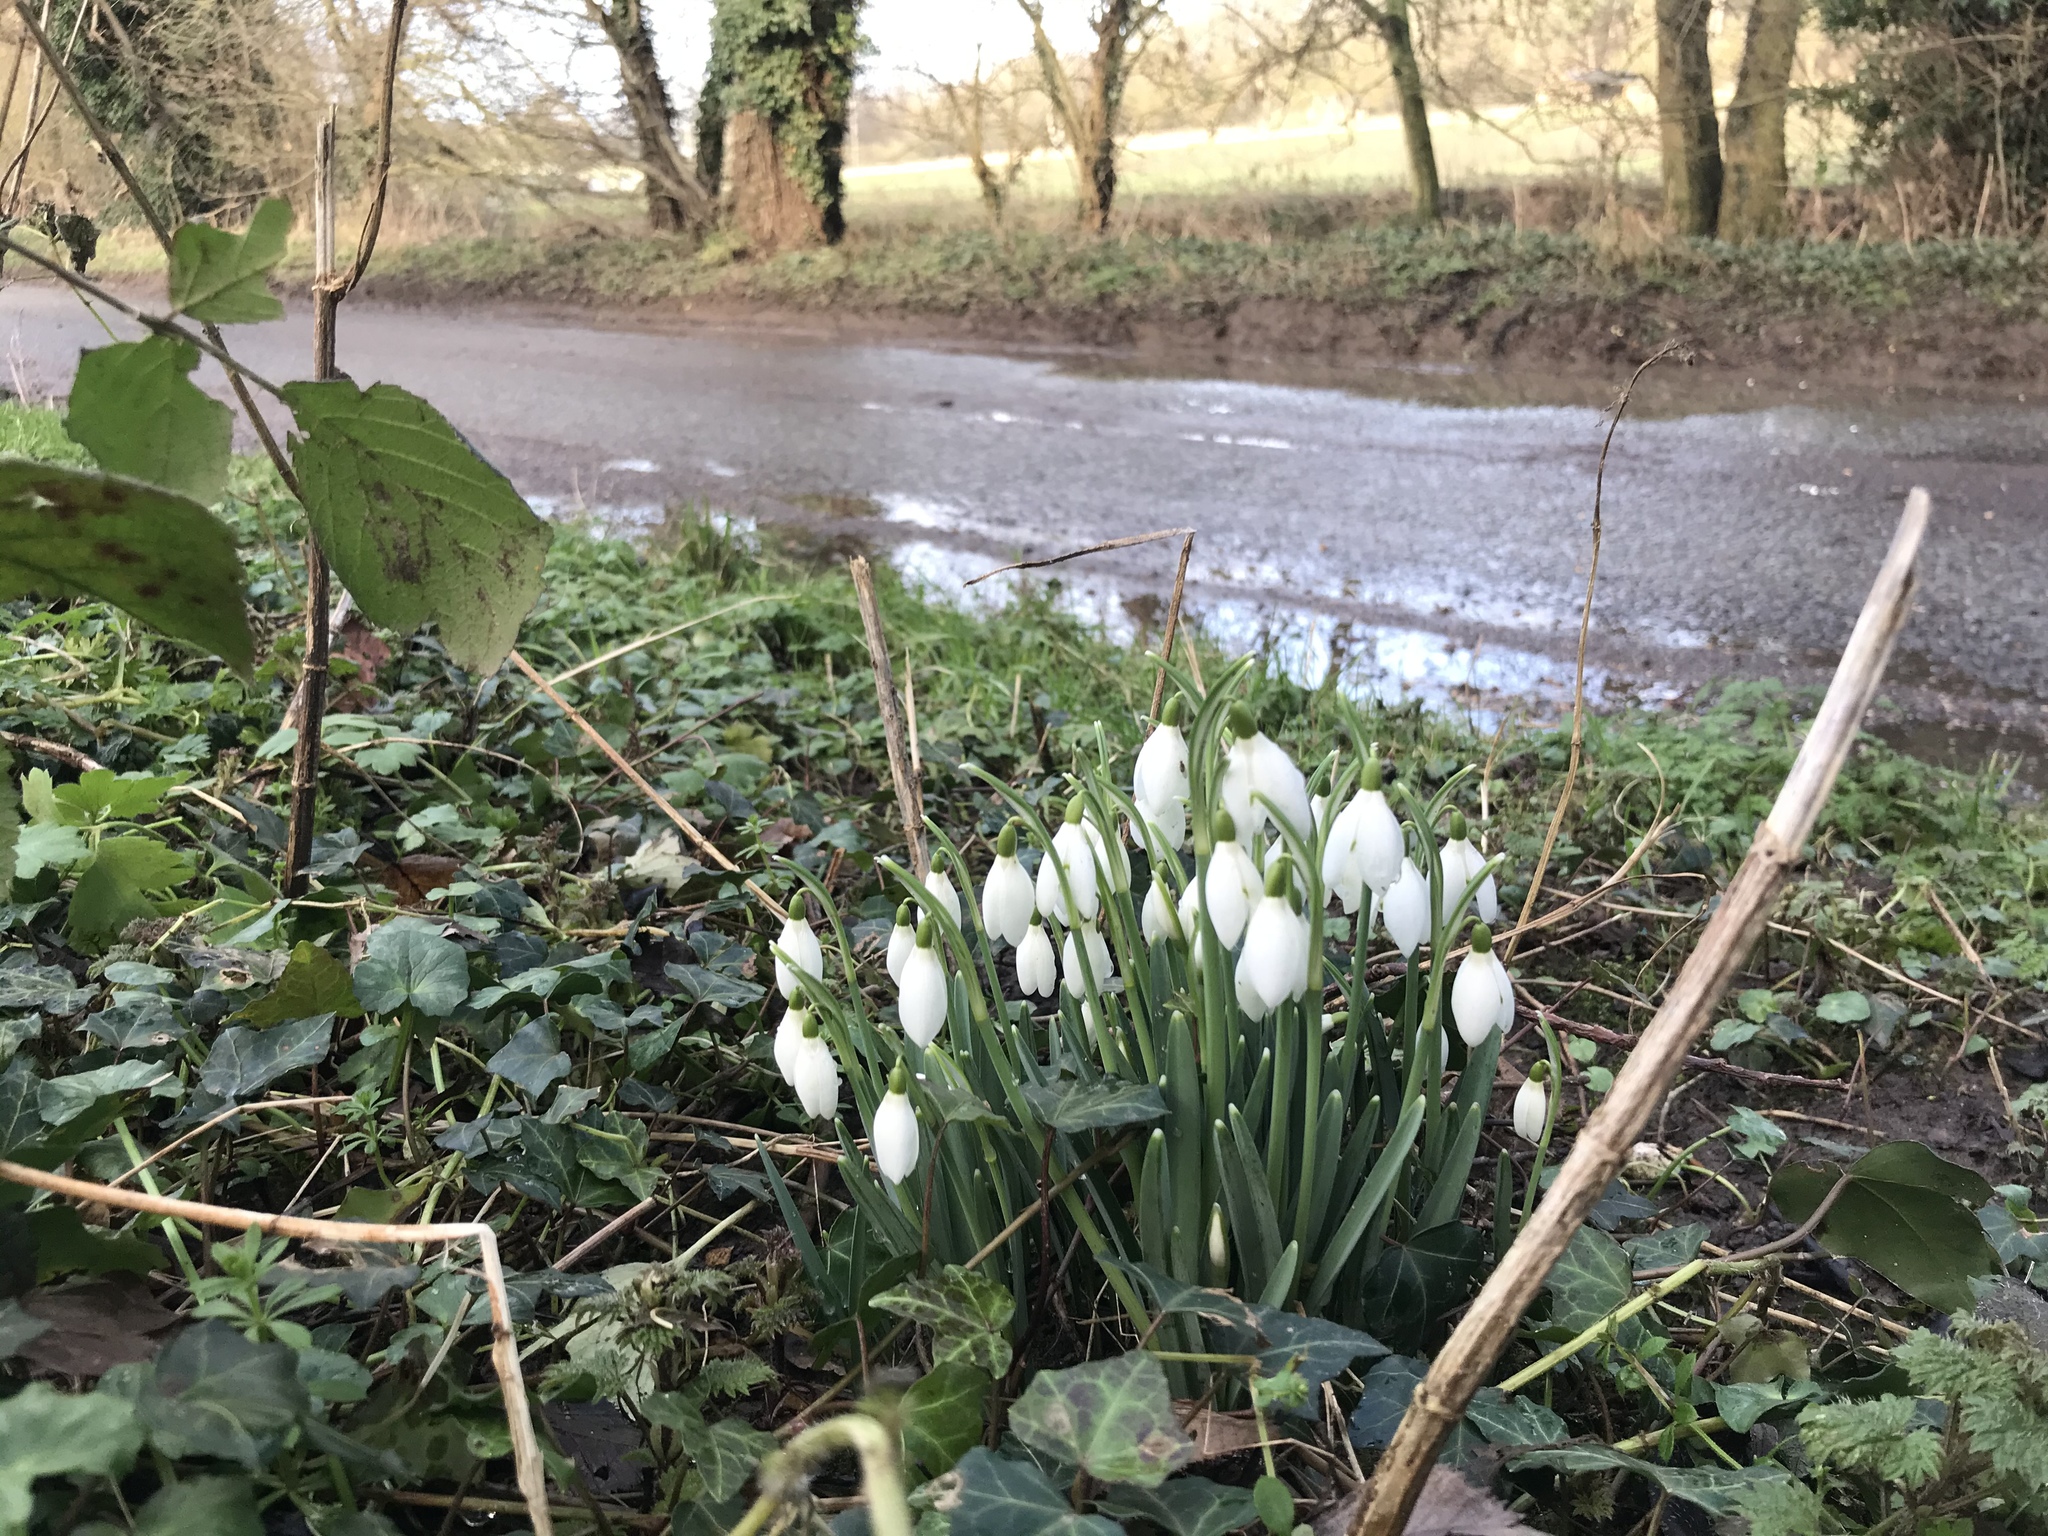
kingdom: Plantae
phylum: Tracheophyta
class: Liliopsida
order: Asparagales
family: Amaryllidaceae
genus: Galanthus
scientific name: Galanthus nivalis
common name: Snowdrop
